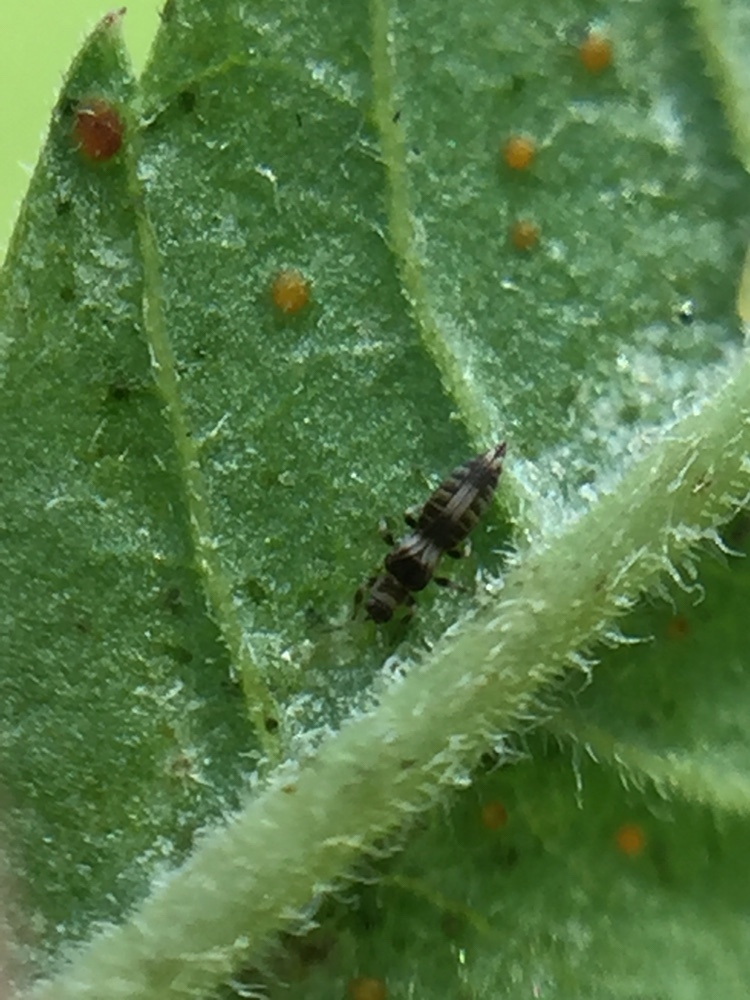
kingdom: Animalia
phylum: Arthropoda
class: Insecta
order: Thysanoptera
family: Thripidae
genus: Neohydatothrips
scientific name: Neohydatothrips samayunkur
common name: Common thrip
